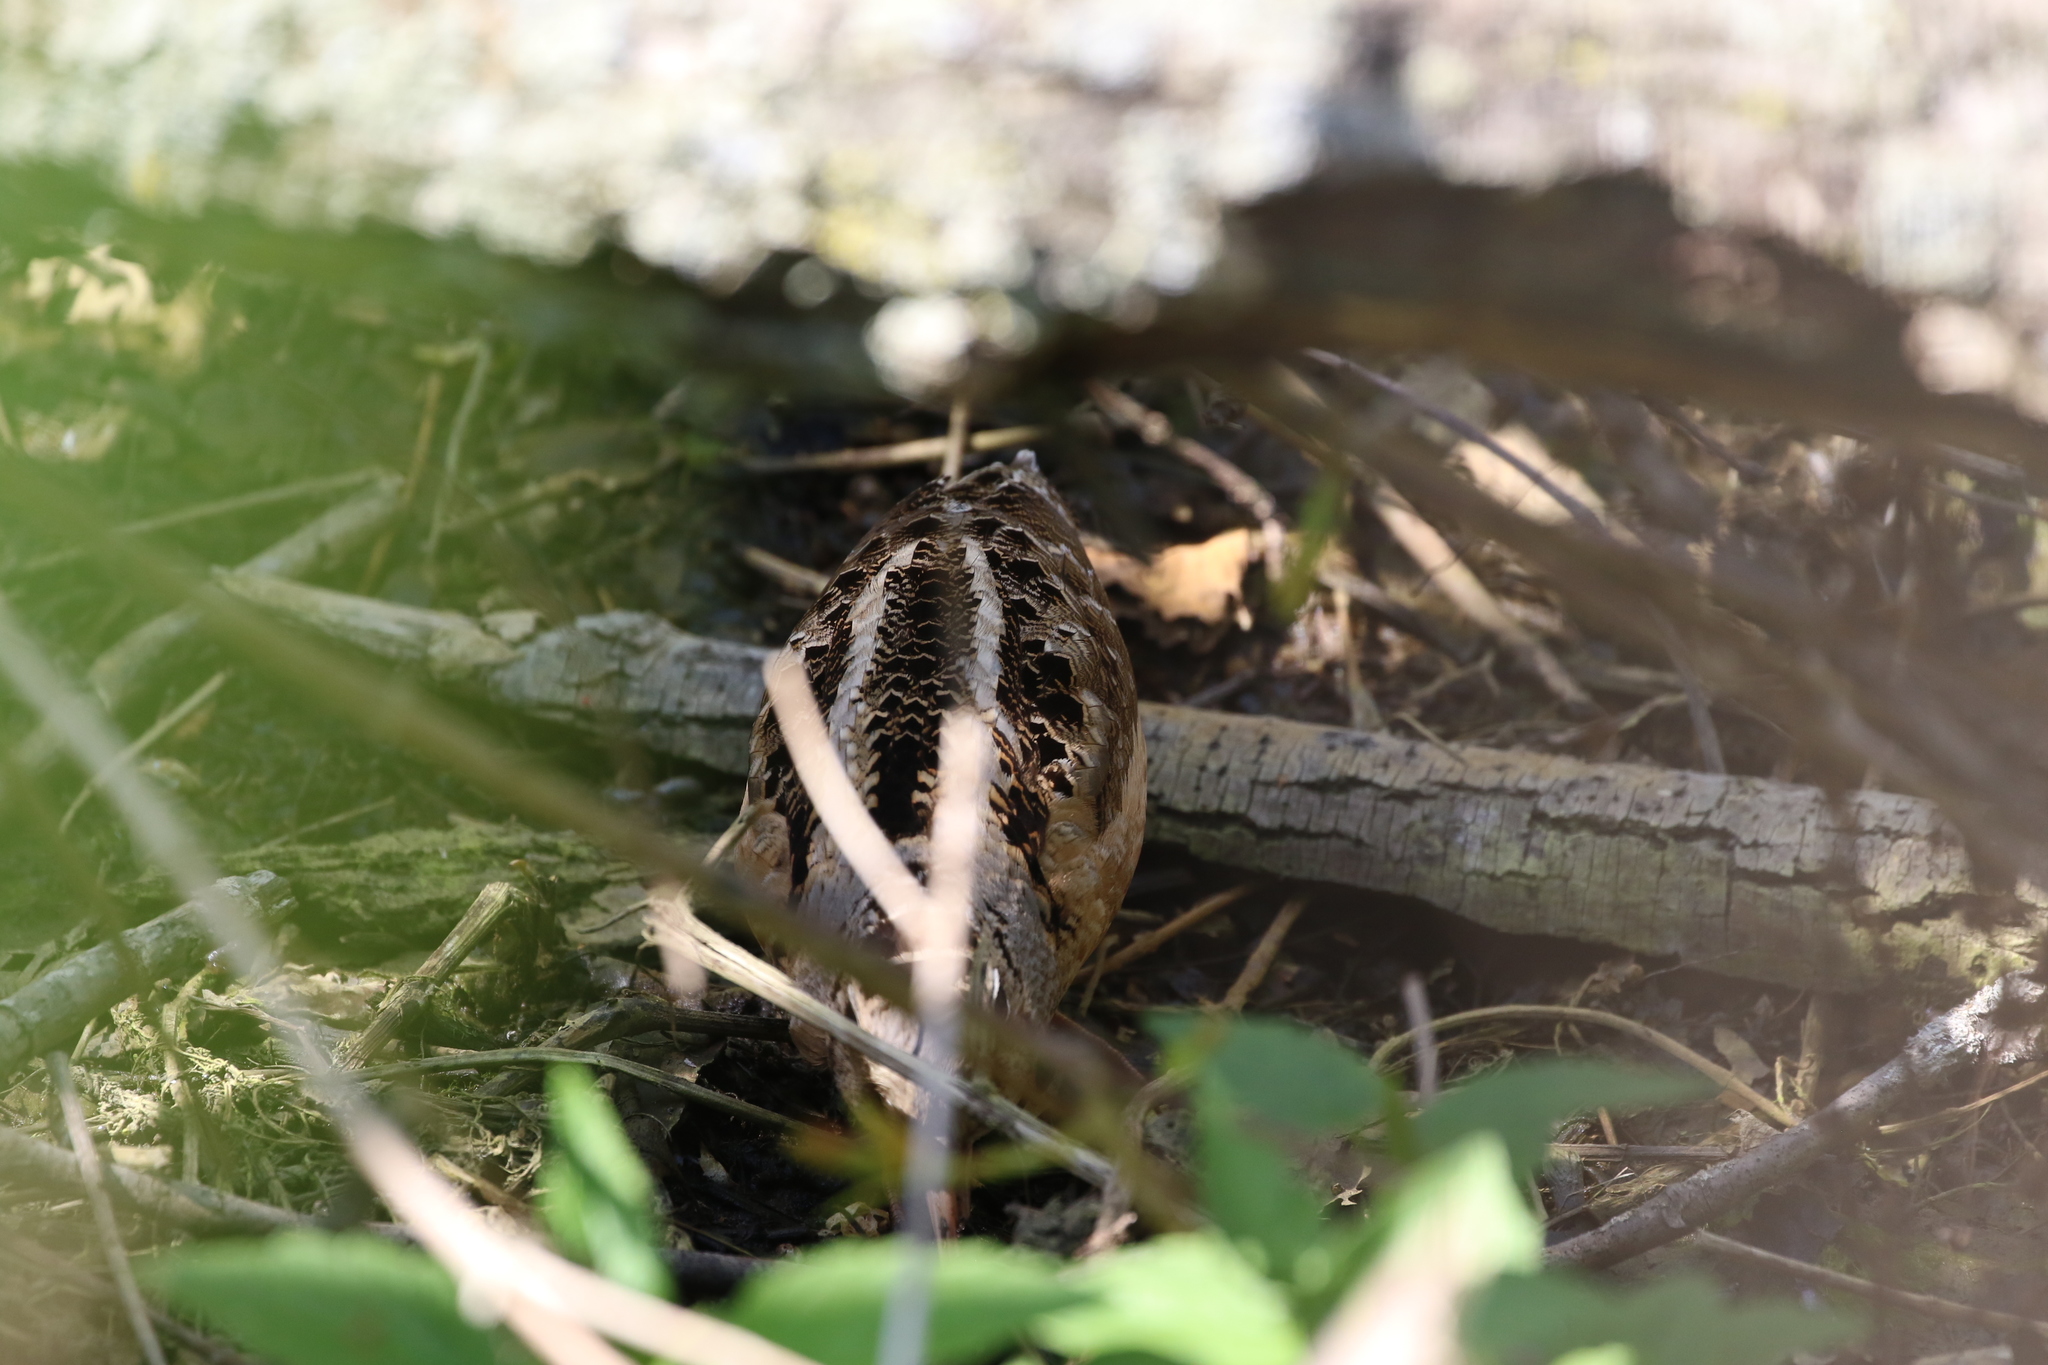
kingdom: Animalia
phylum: Chordata
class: Aves
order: Charadriiformes
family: Scolopacidae
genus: Scolopax
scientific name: Scolopax minor
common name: American woodcock
